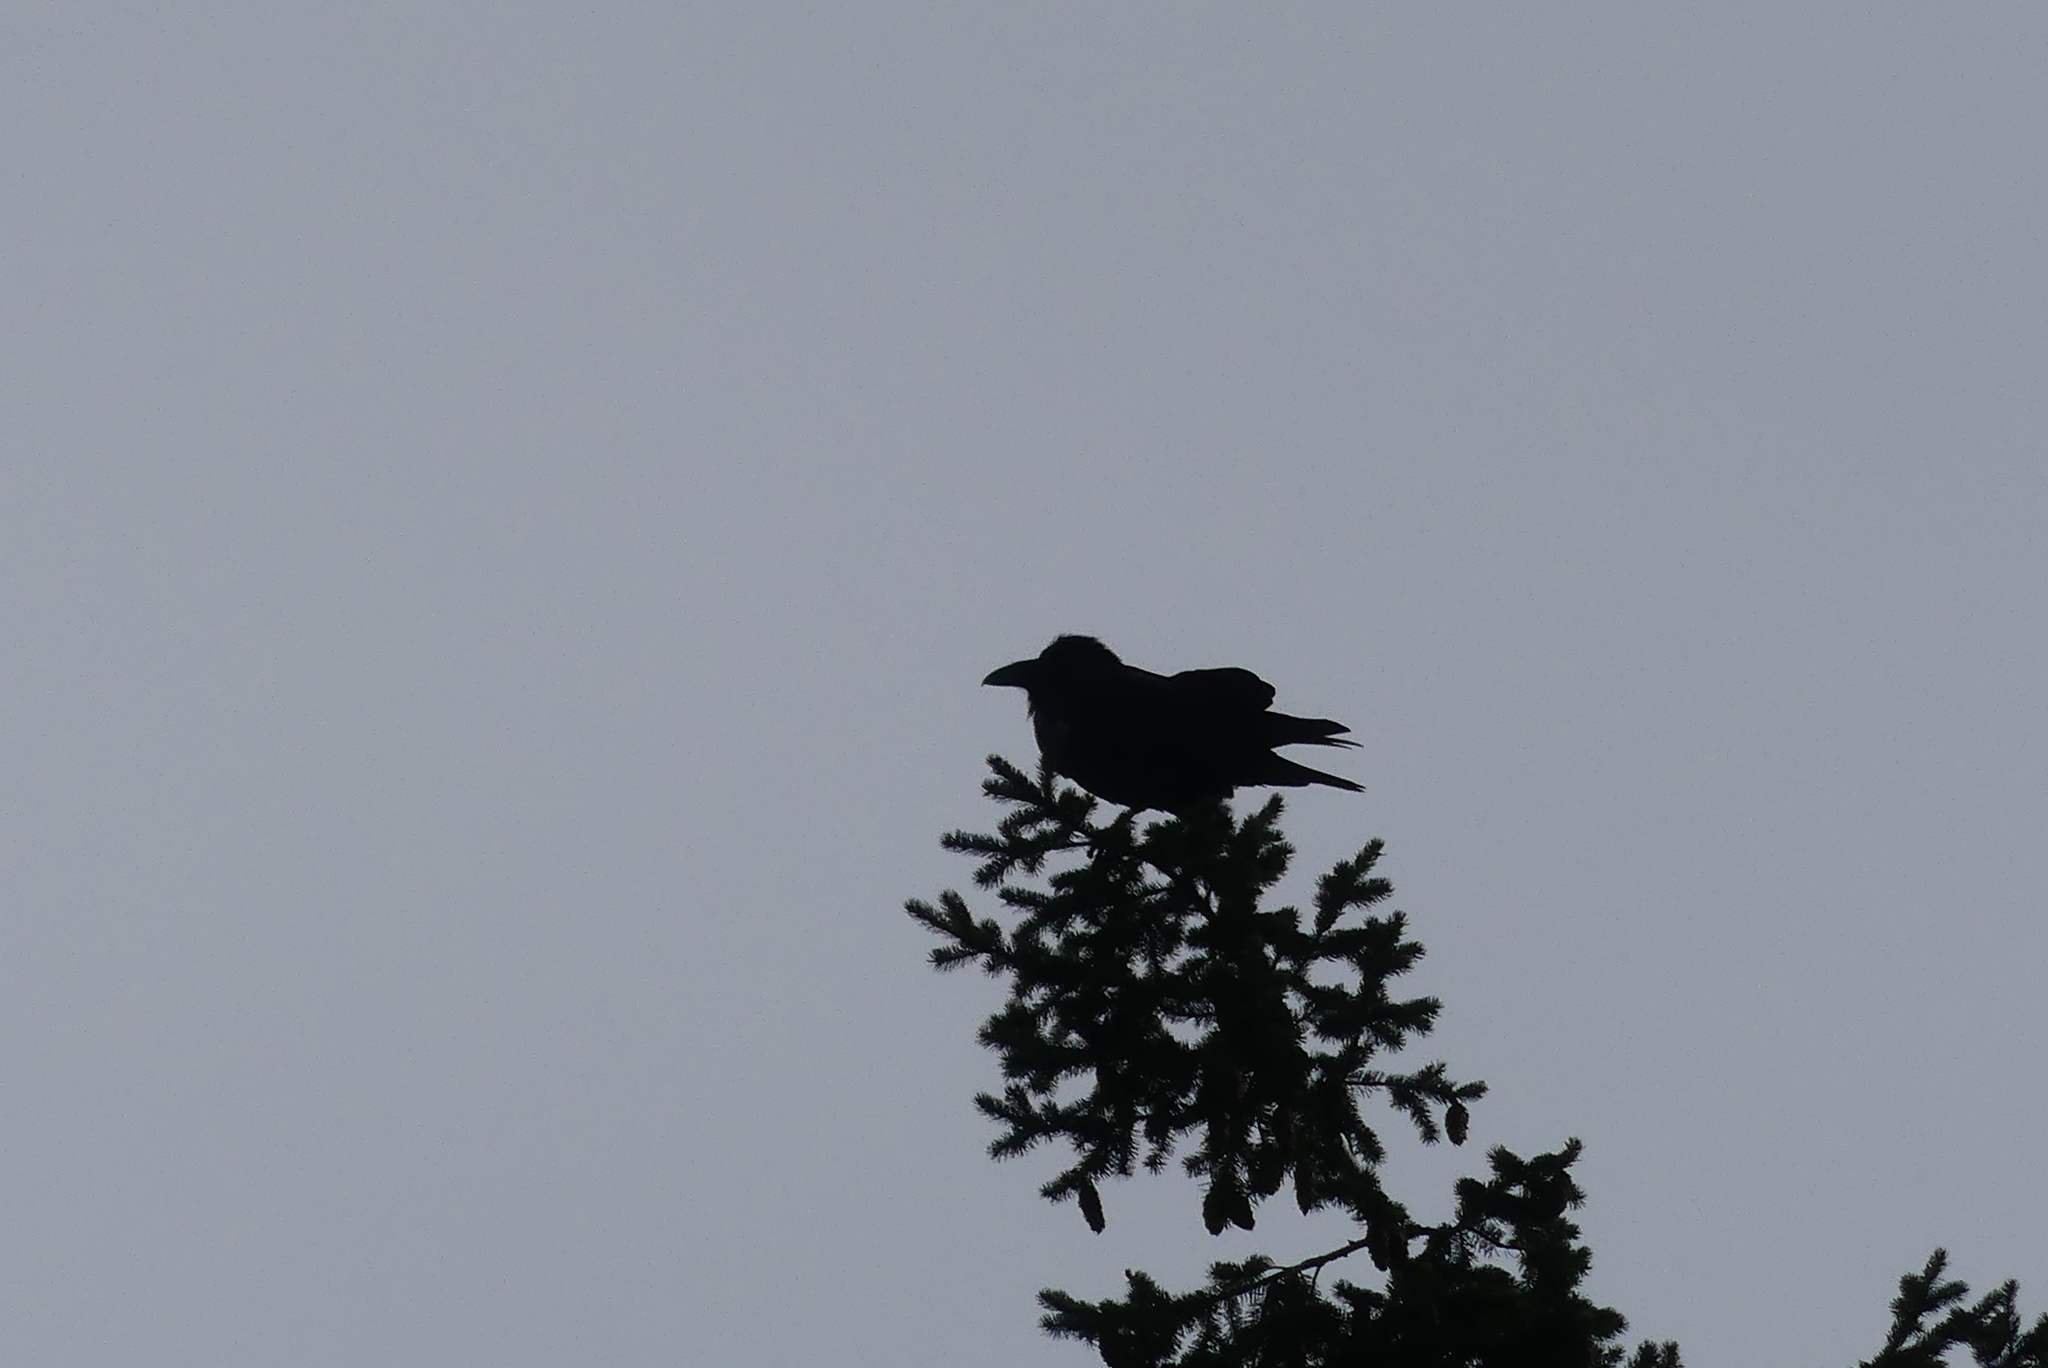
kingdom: Animalia
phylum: Chordata
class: Aves
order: Passeriformes
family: Corvidae
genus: Corvus
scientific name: Corvus corax
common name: Common raven
